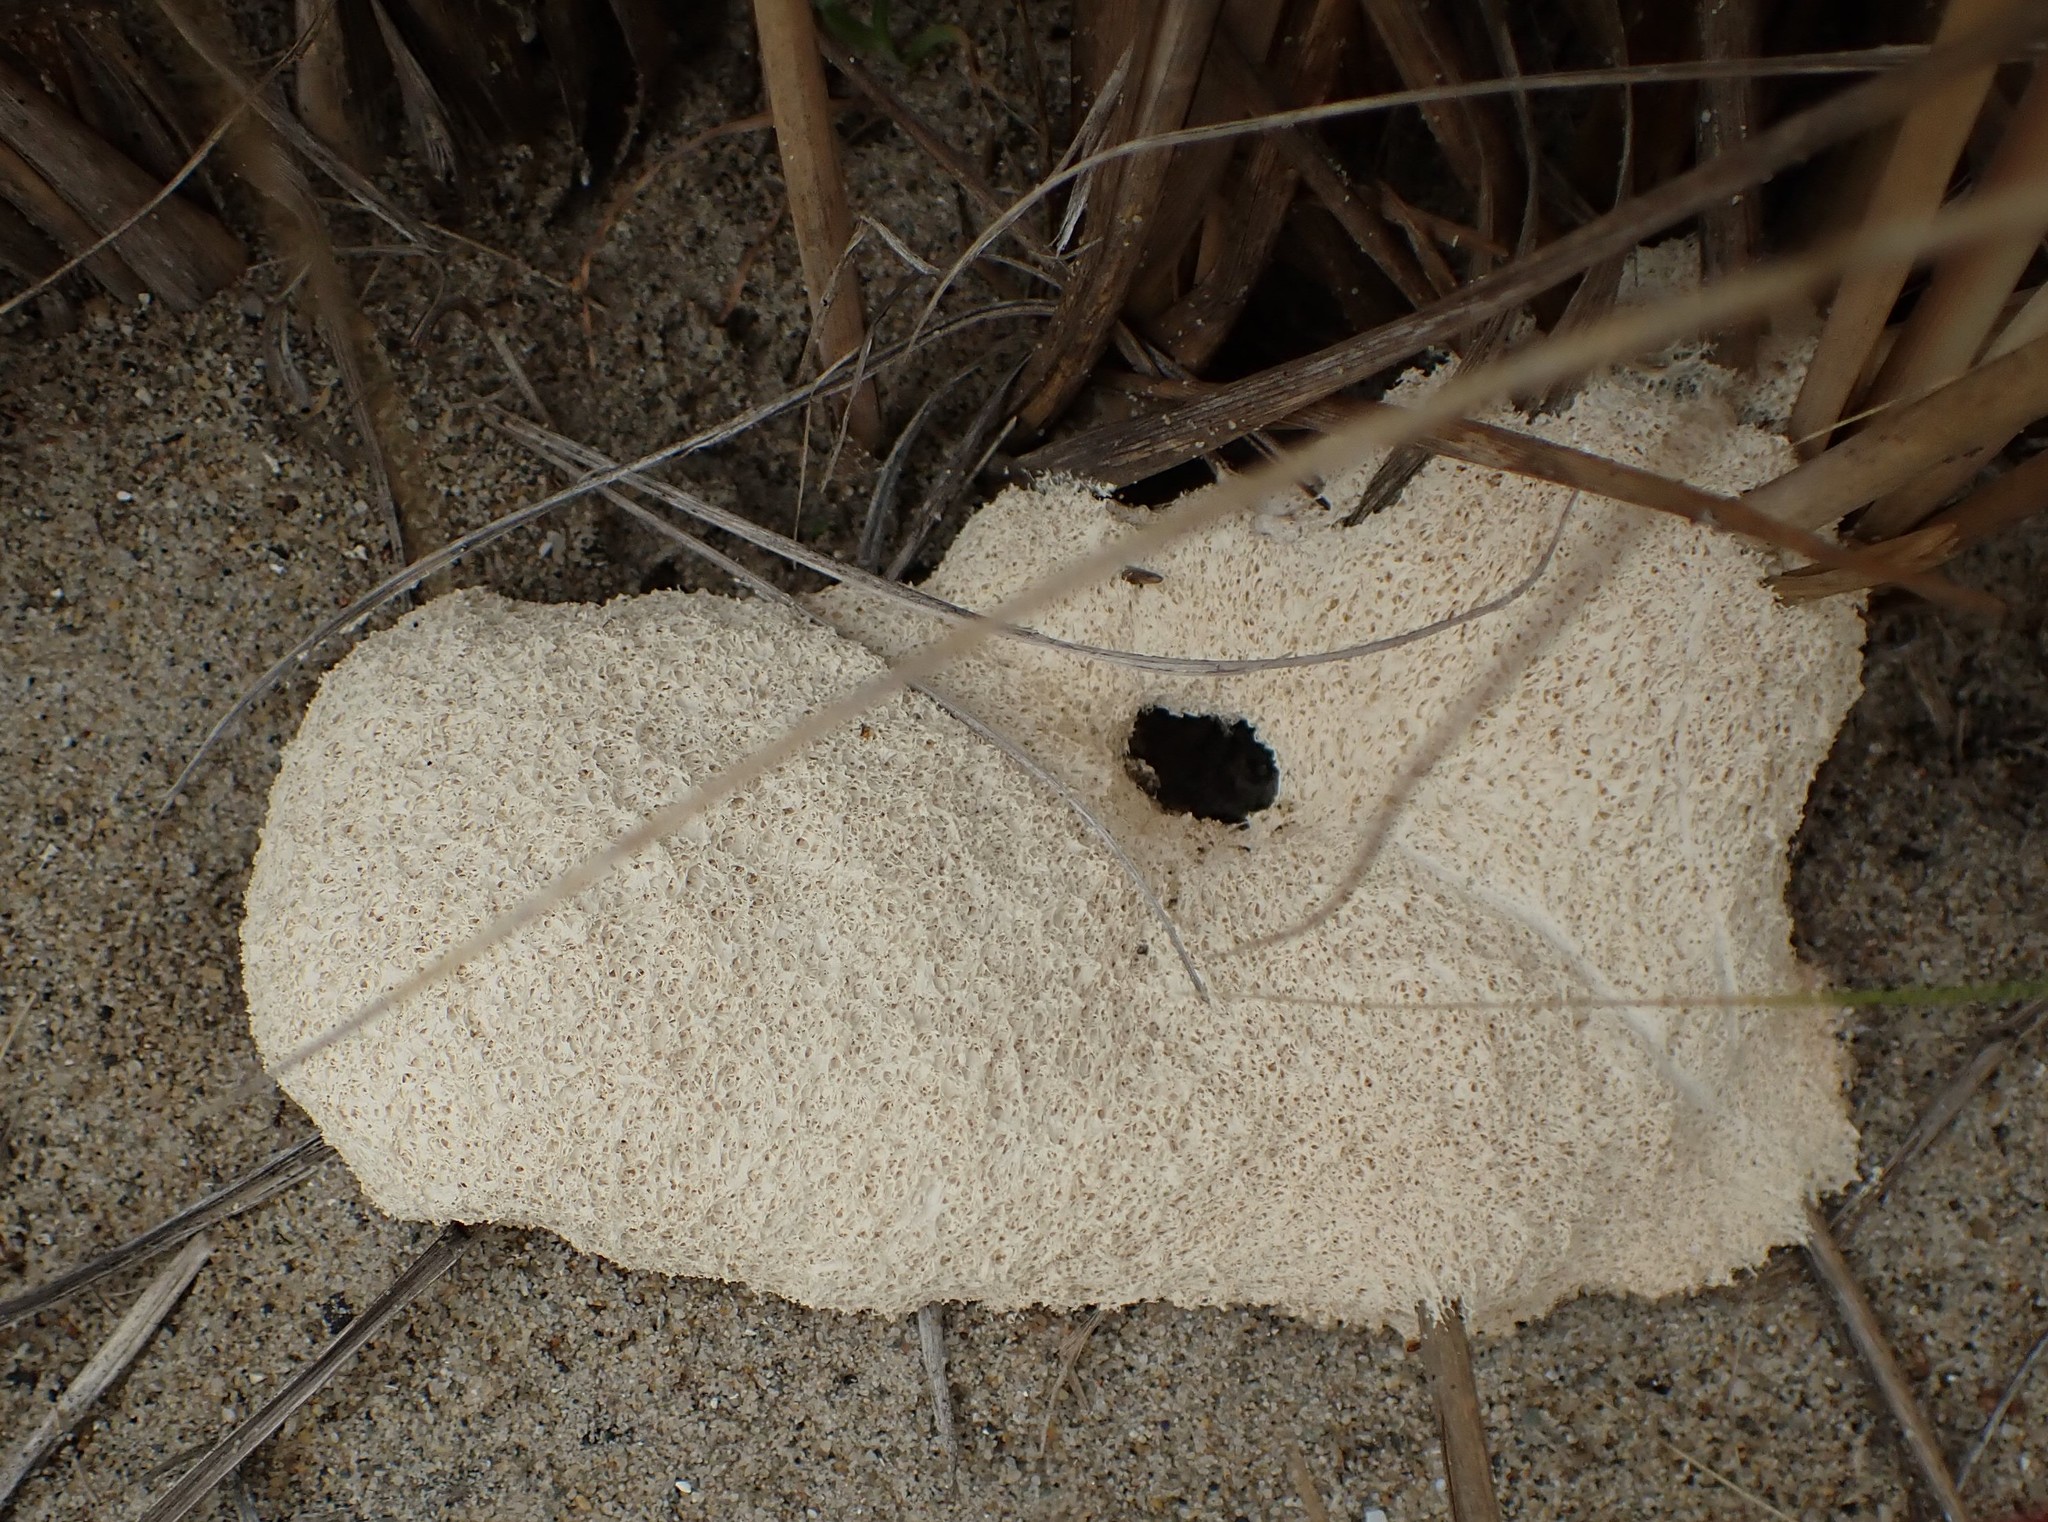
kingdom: Protozoa
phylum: Mycetozoa
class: Myxomycetes
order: Physarales
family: Physaraceae
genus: Fuligo
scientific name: Fuligo septica
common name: Dog vomit slime mold
